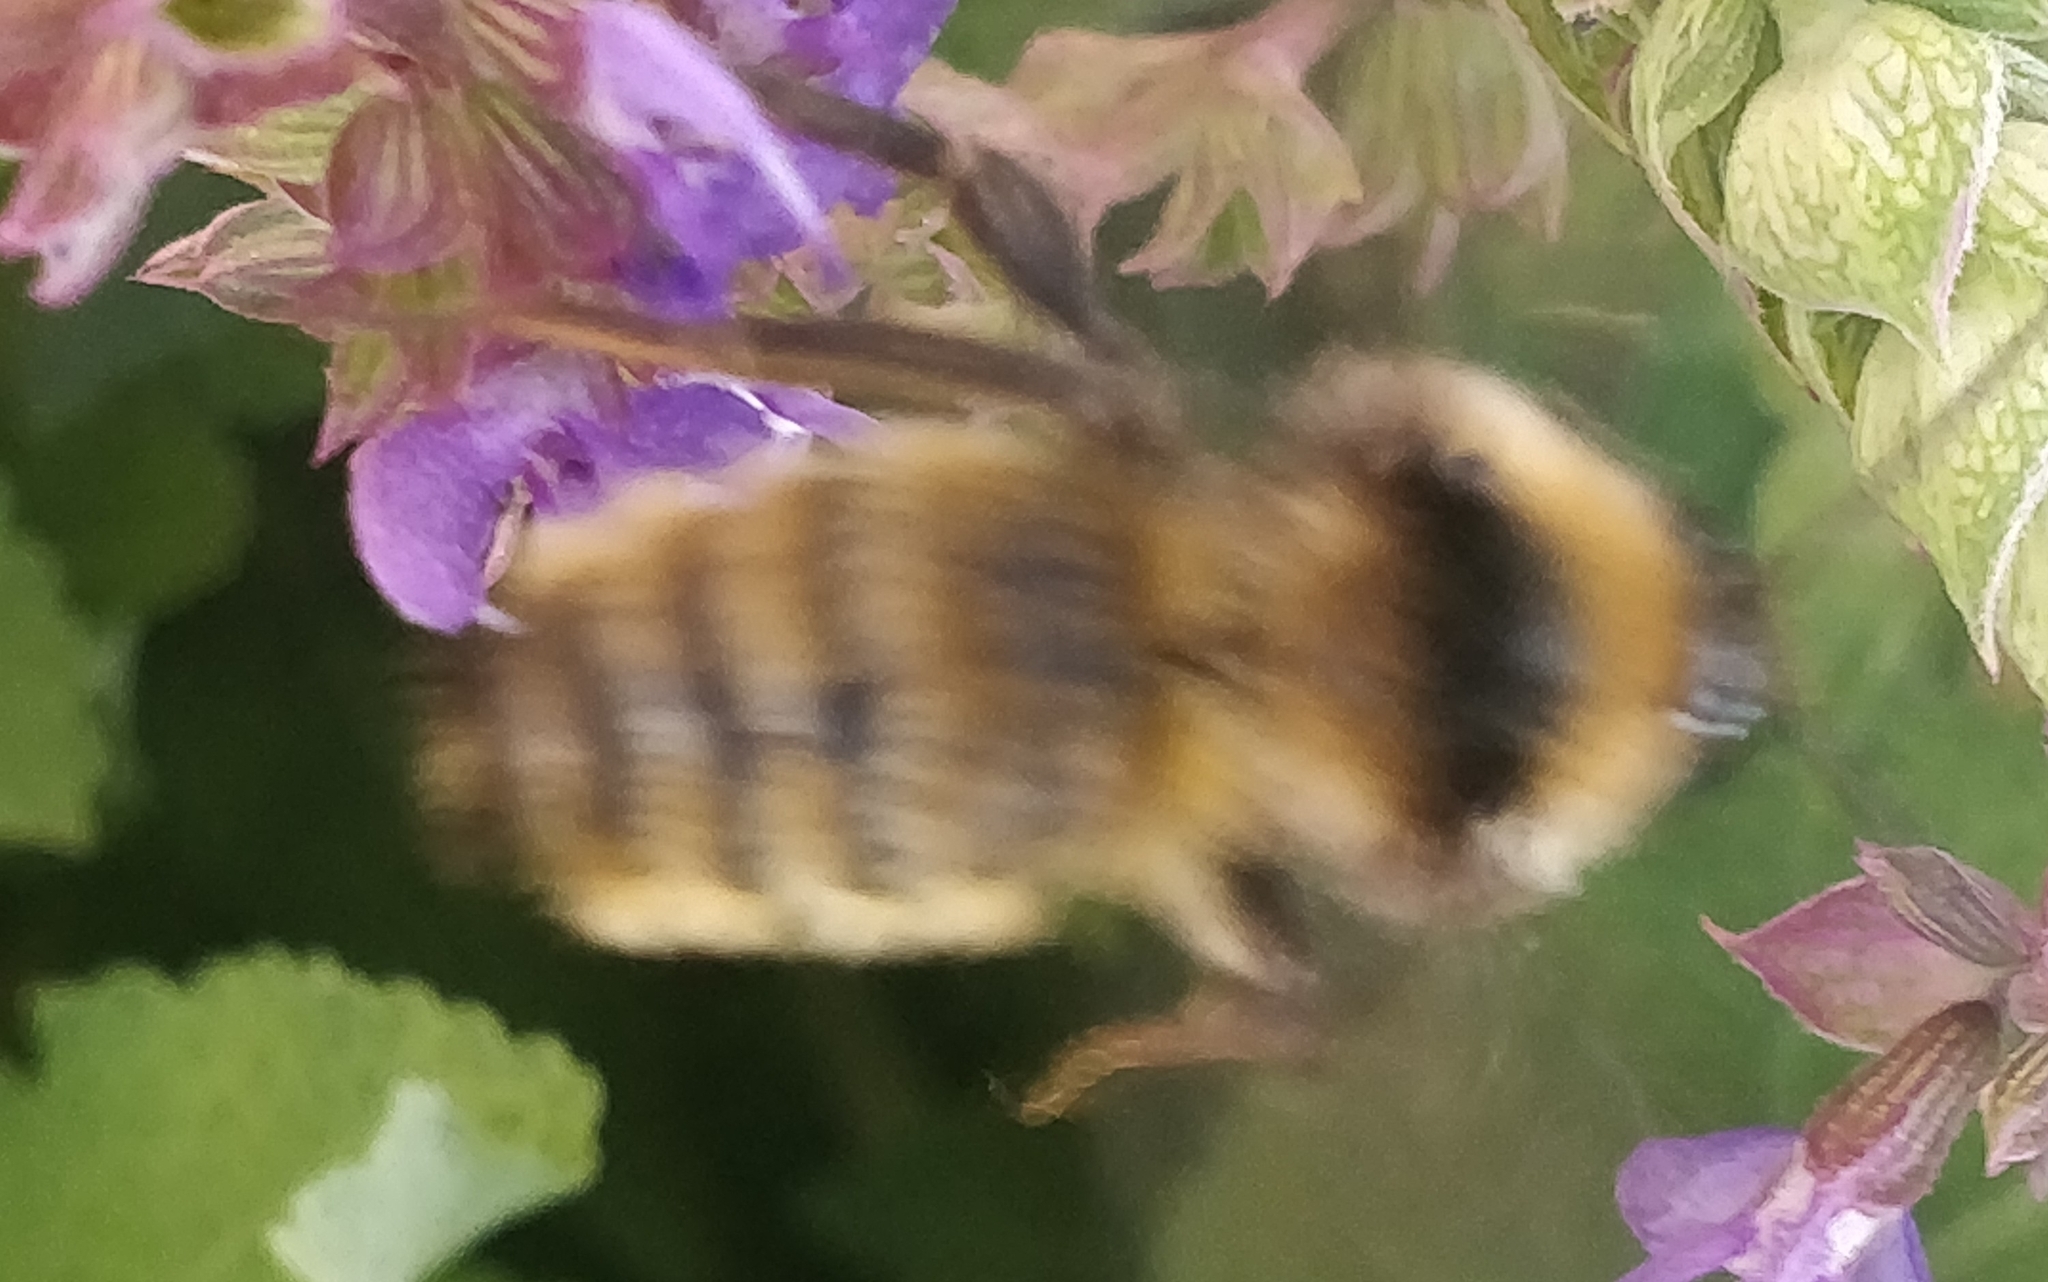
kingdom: Animalia
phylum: Arthropoda
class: Insecta
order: Hymenoptera
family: Apidae
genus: Bombus
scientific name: Bombus pensylvanicus
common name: Bumble bee
